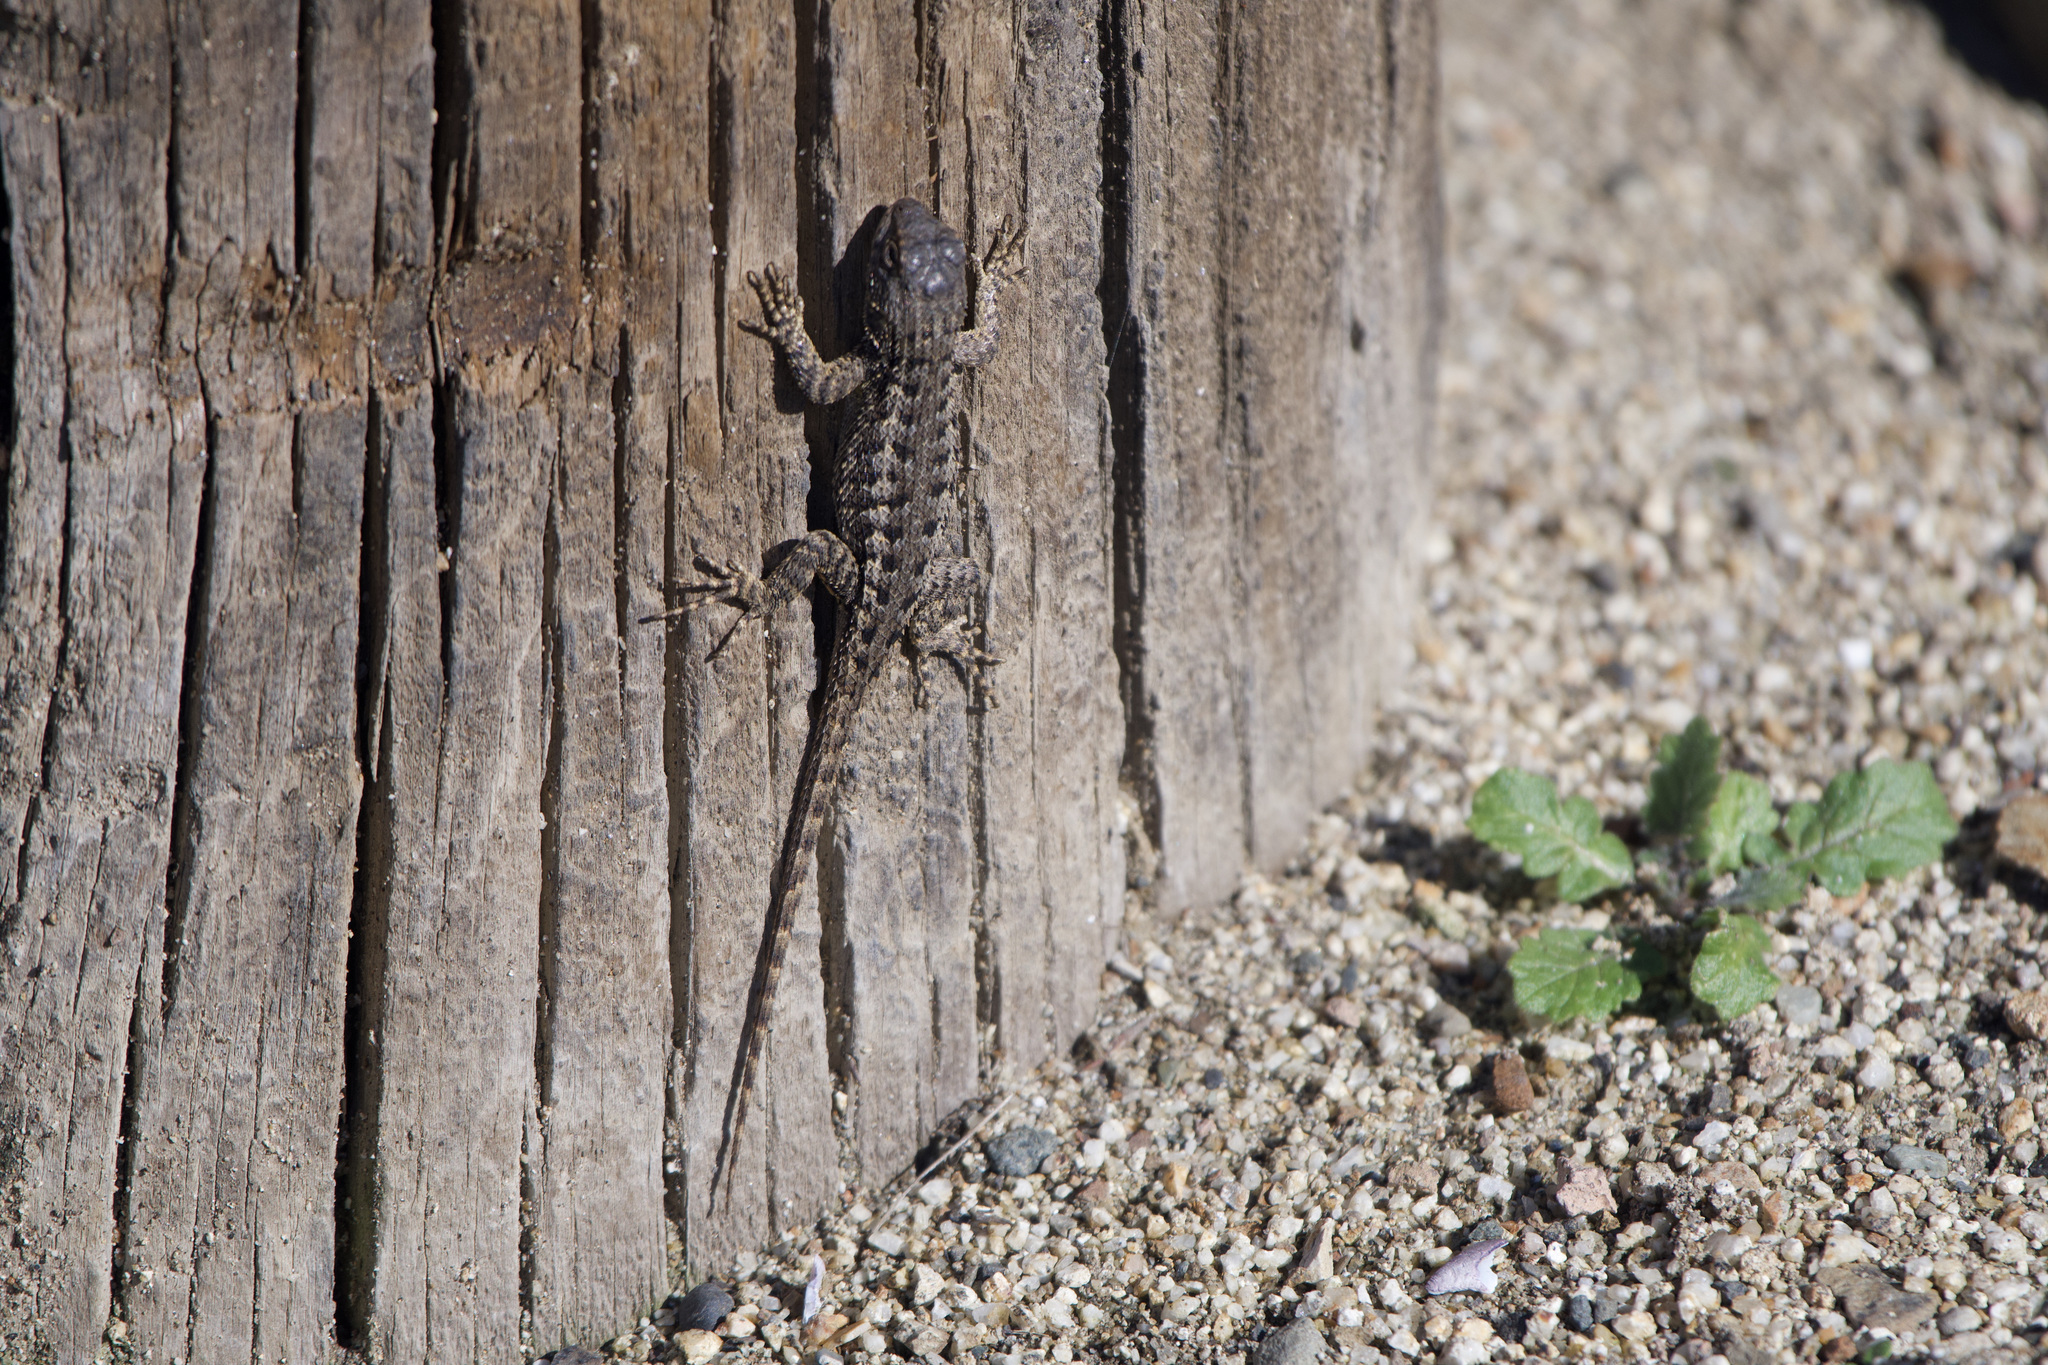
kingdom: Animalia
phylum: Chordata
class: Squamata
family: Phrynosomatidae
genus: Sceloporus
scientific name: Sceloporus occidentalis
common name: Western fence lizard
